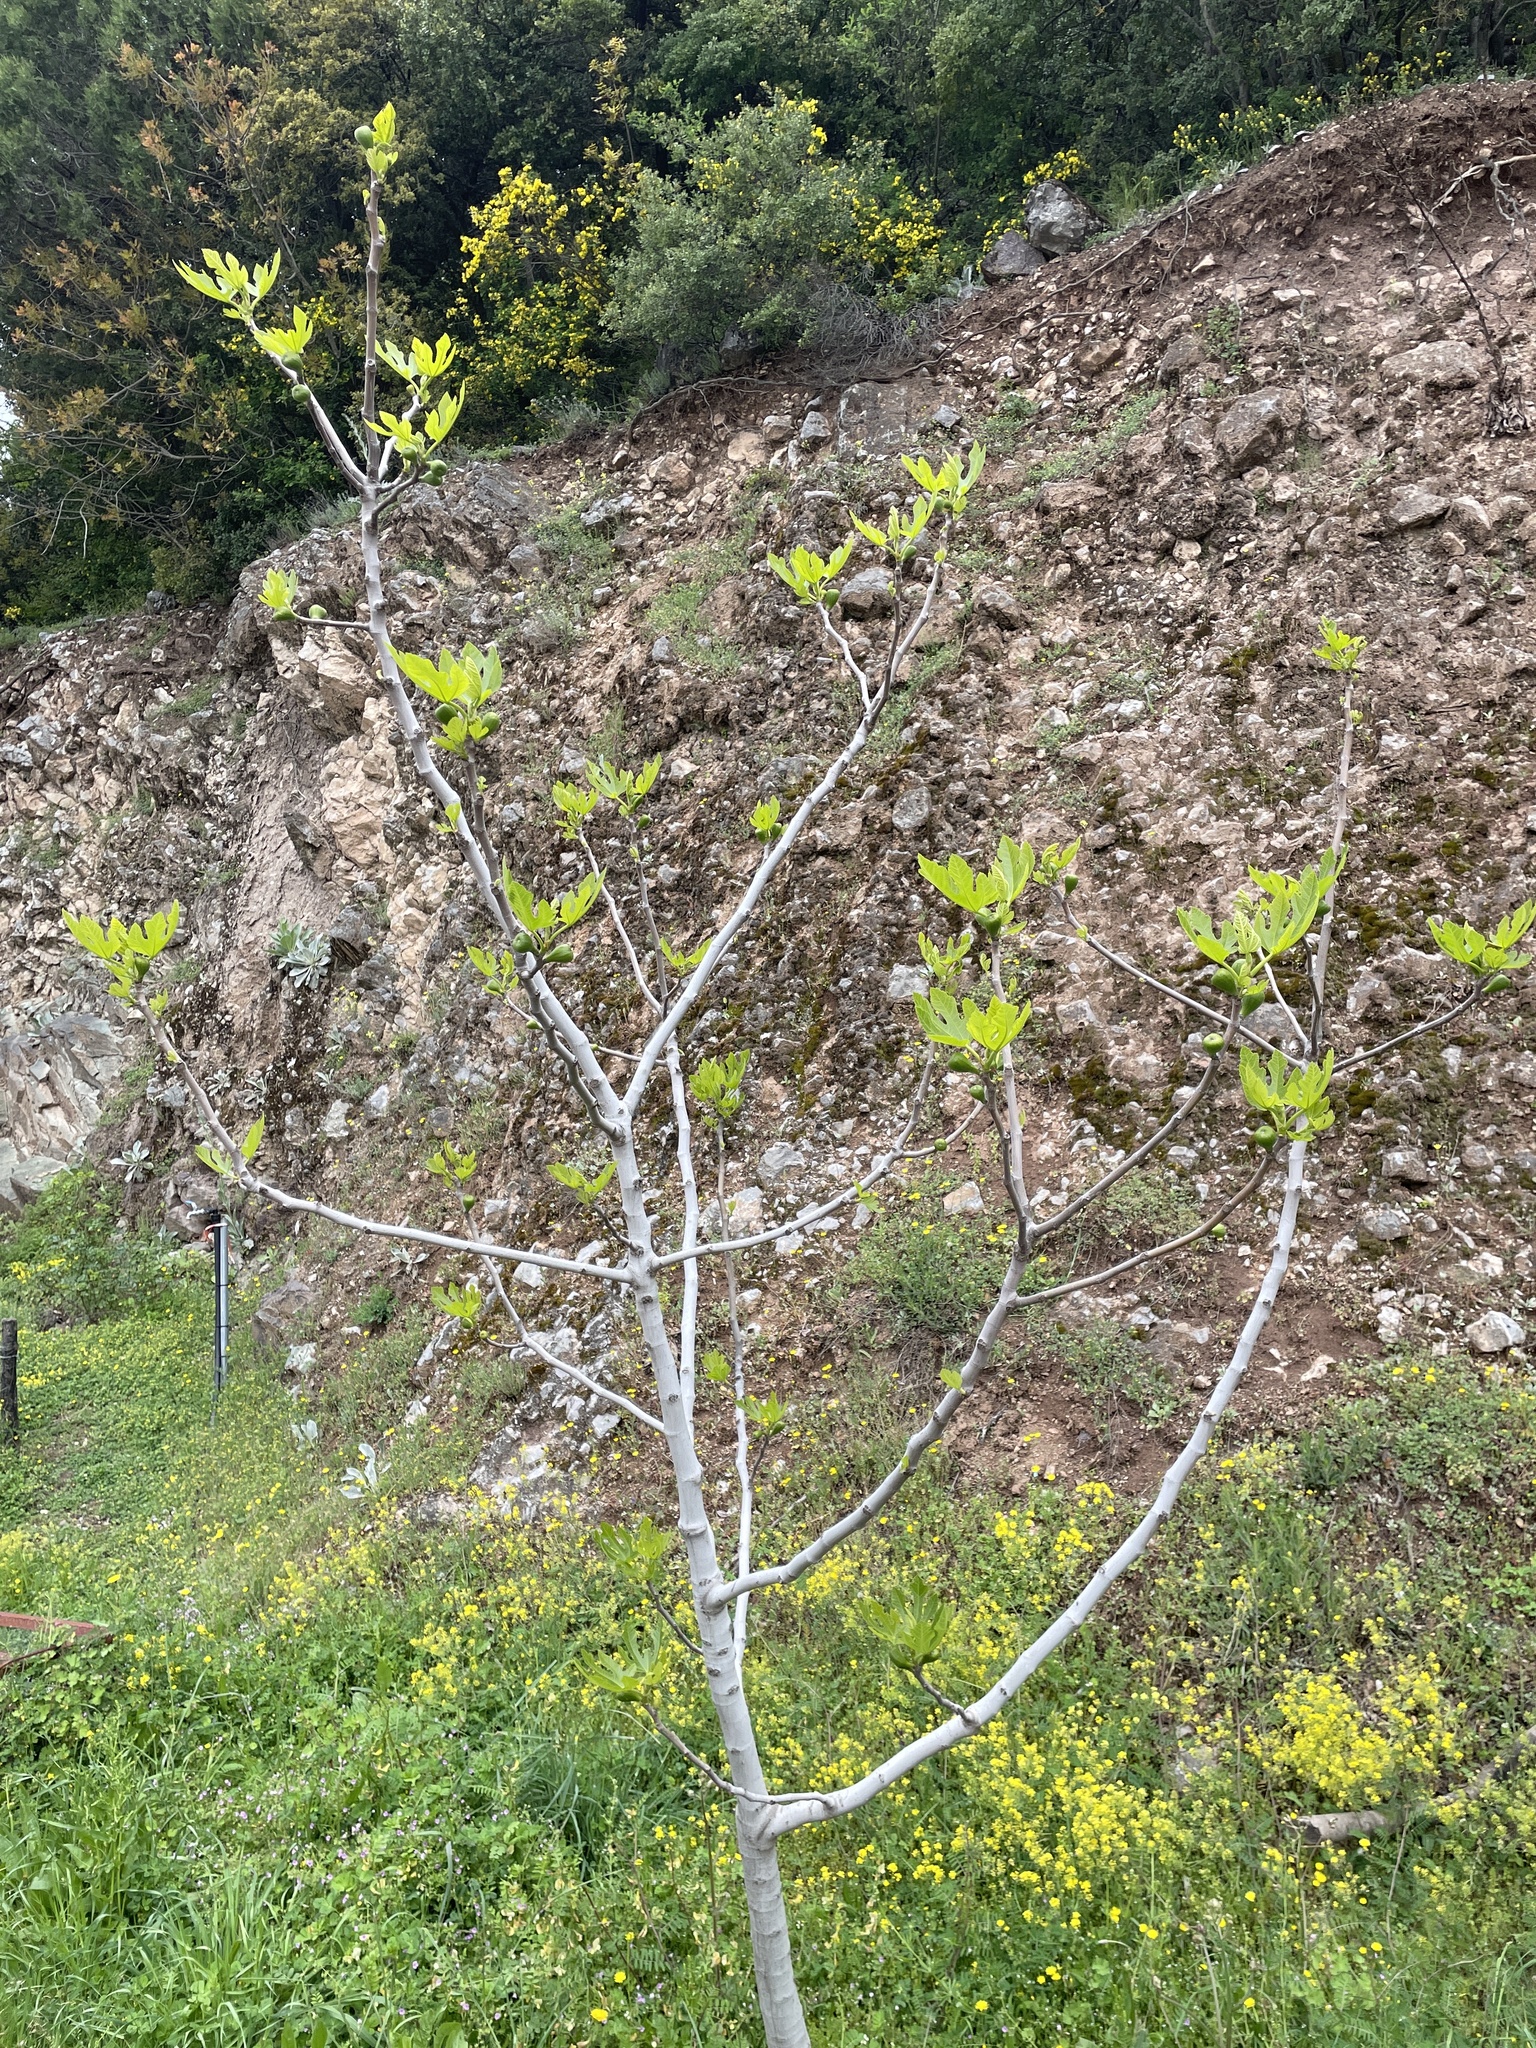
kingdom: Plantae
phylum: Tracheophyta
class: Magnoliopsida
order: Rosales
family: Moraceae
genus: Ficus
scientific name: Ficus carica
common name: Fig
